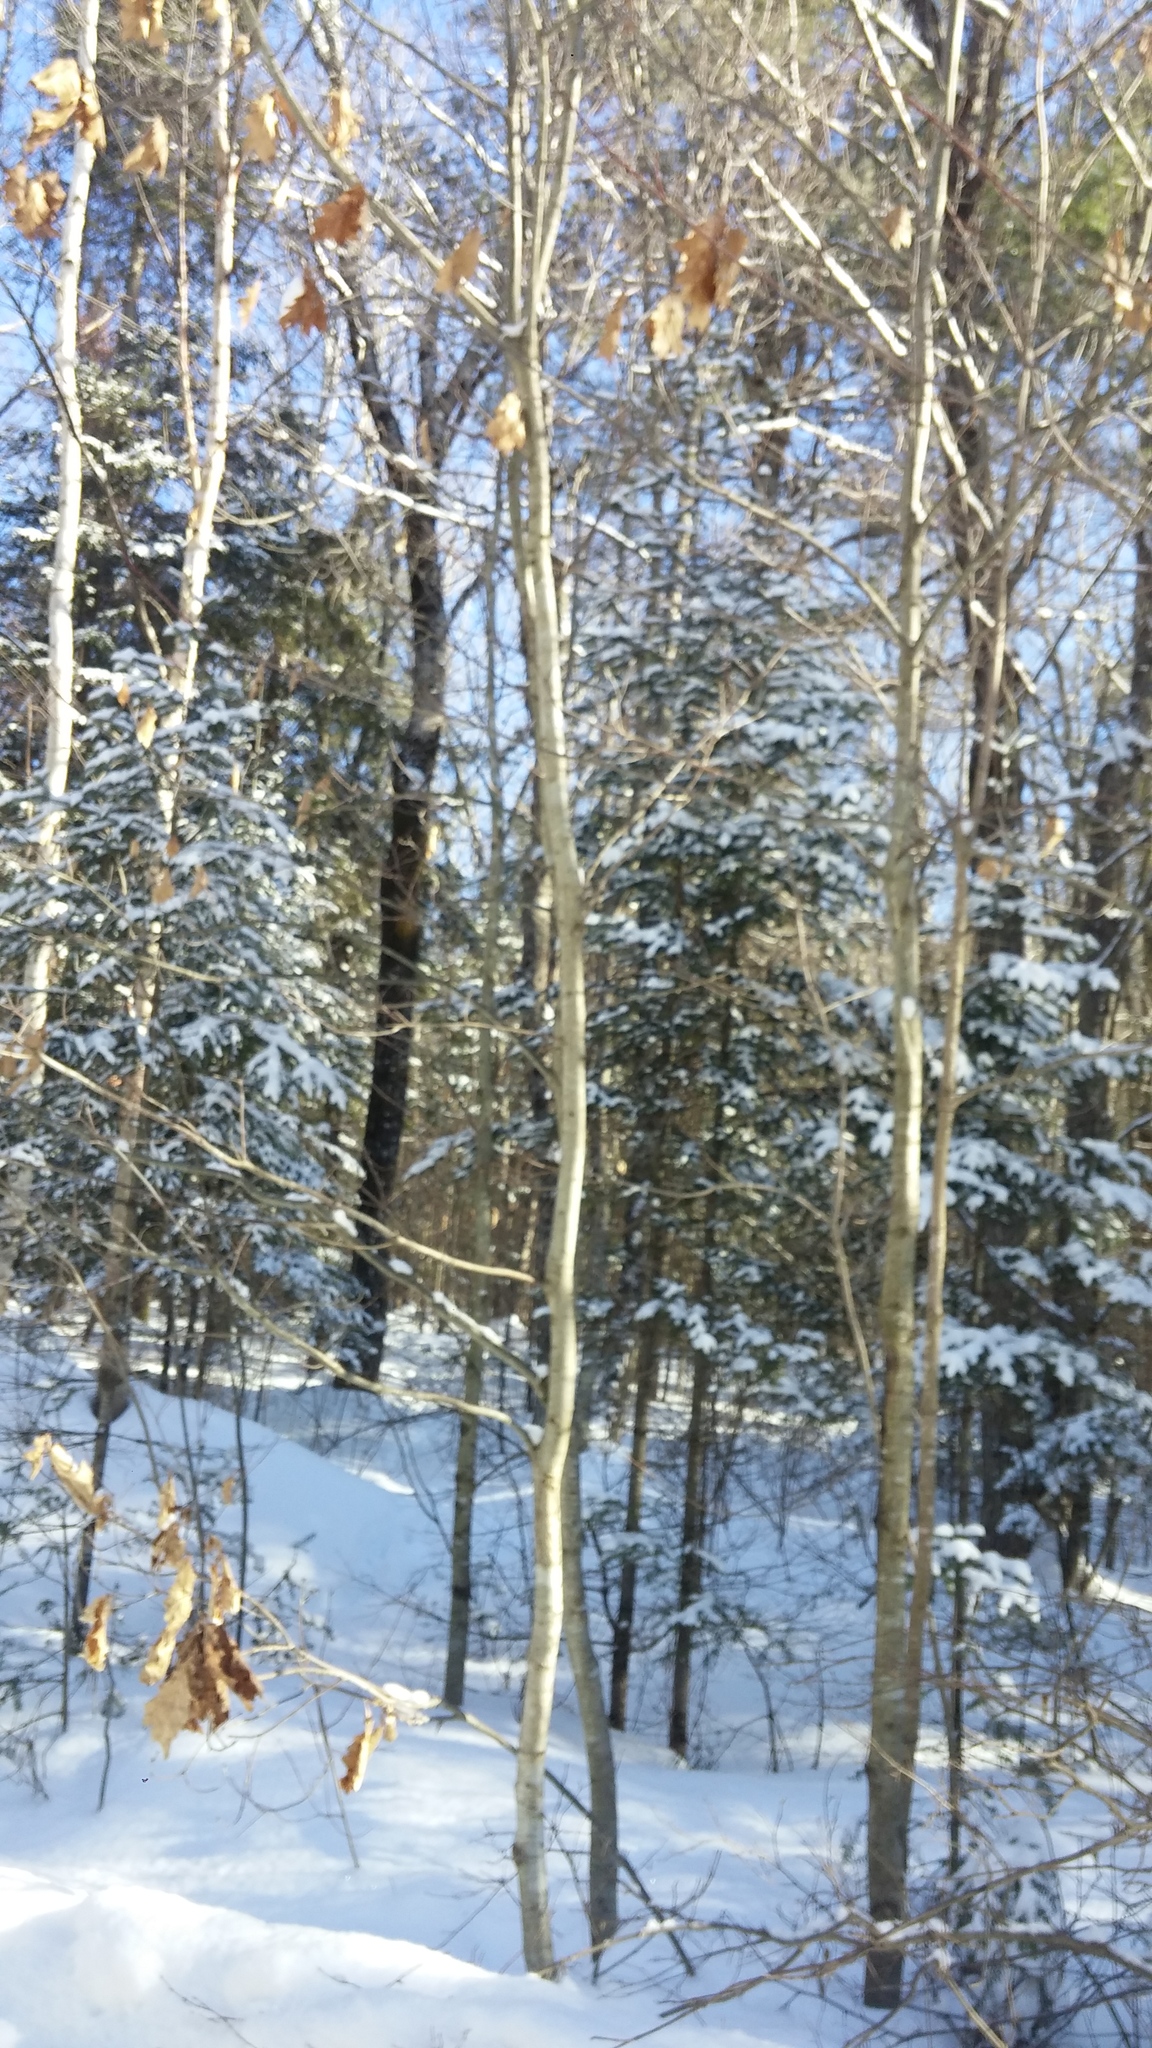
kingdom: Plantae
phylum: Tracheophyta
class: Magnoliopsida
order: Fagales
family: Fagaceae
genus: Fagus
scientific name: Fagus grandifolia
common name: American beech
